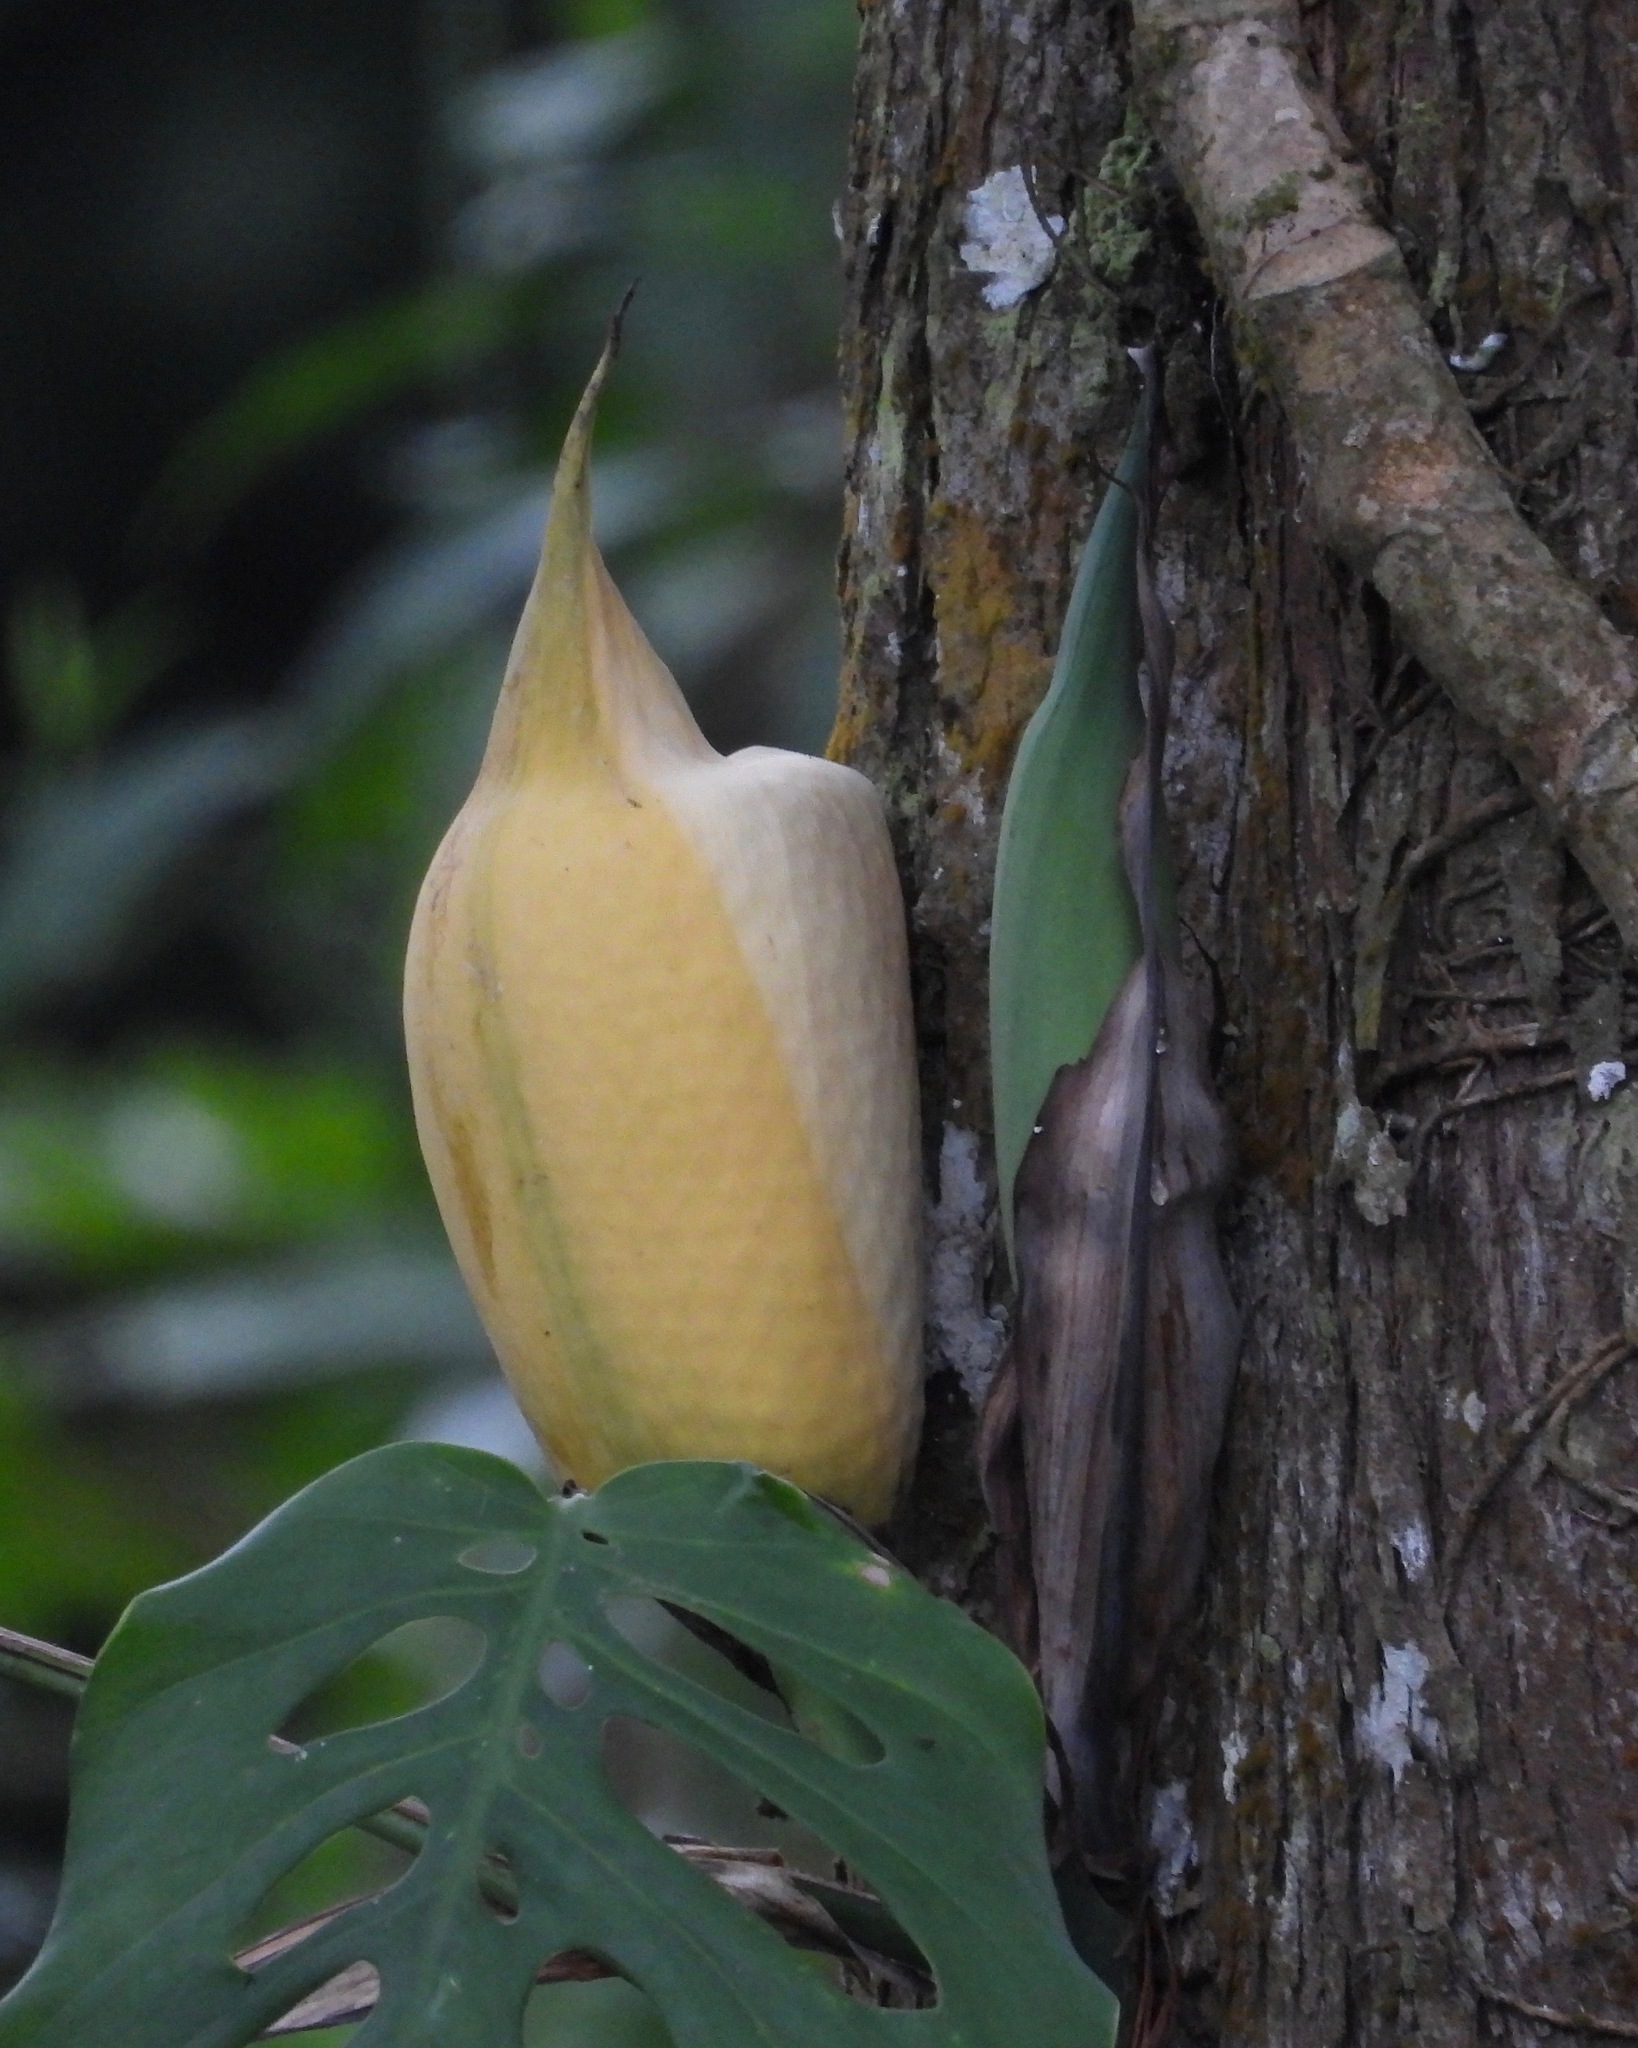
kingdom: Plantae
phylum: Tracheophyta
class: Liliopsida
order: Alismatales
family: Araceae
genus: Monstera
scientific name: Monstera siltepecana
